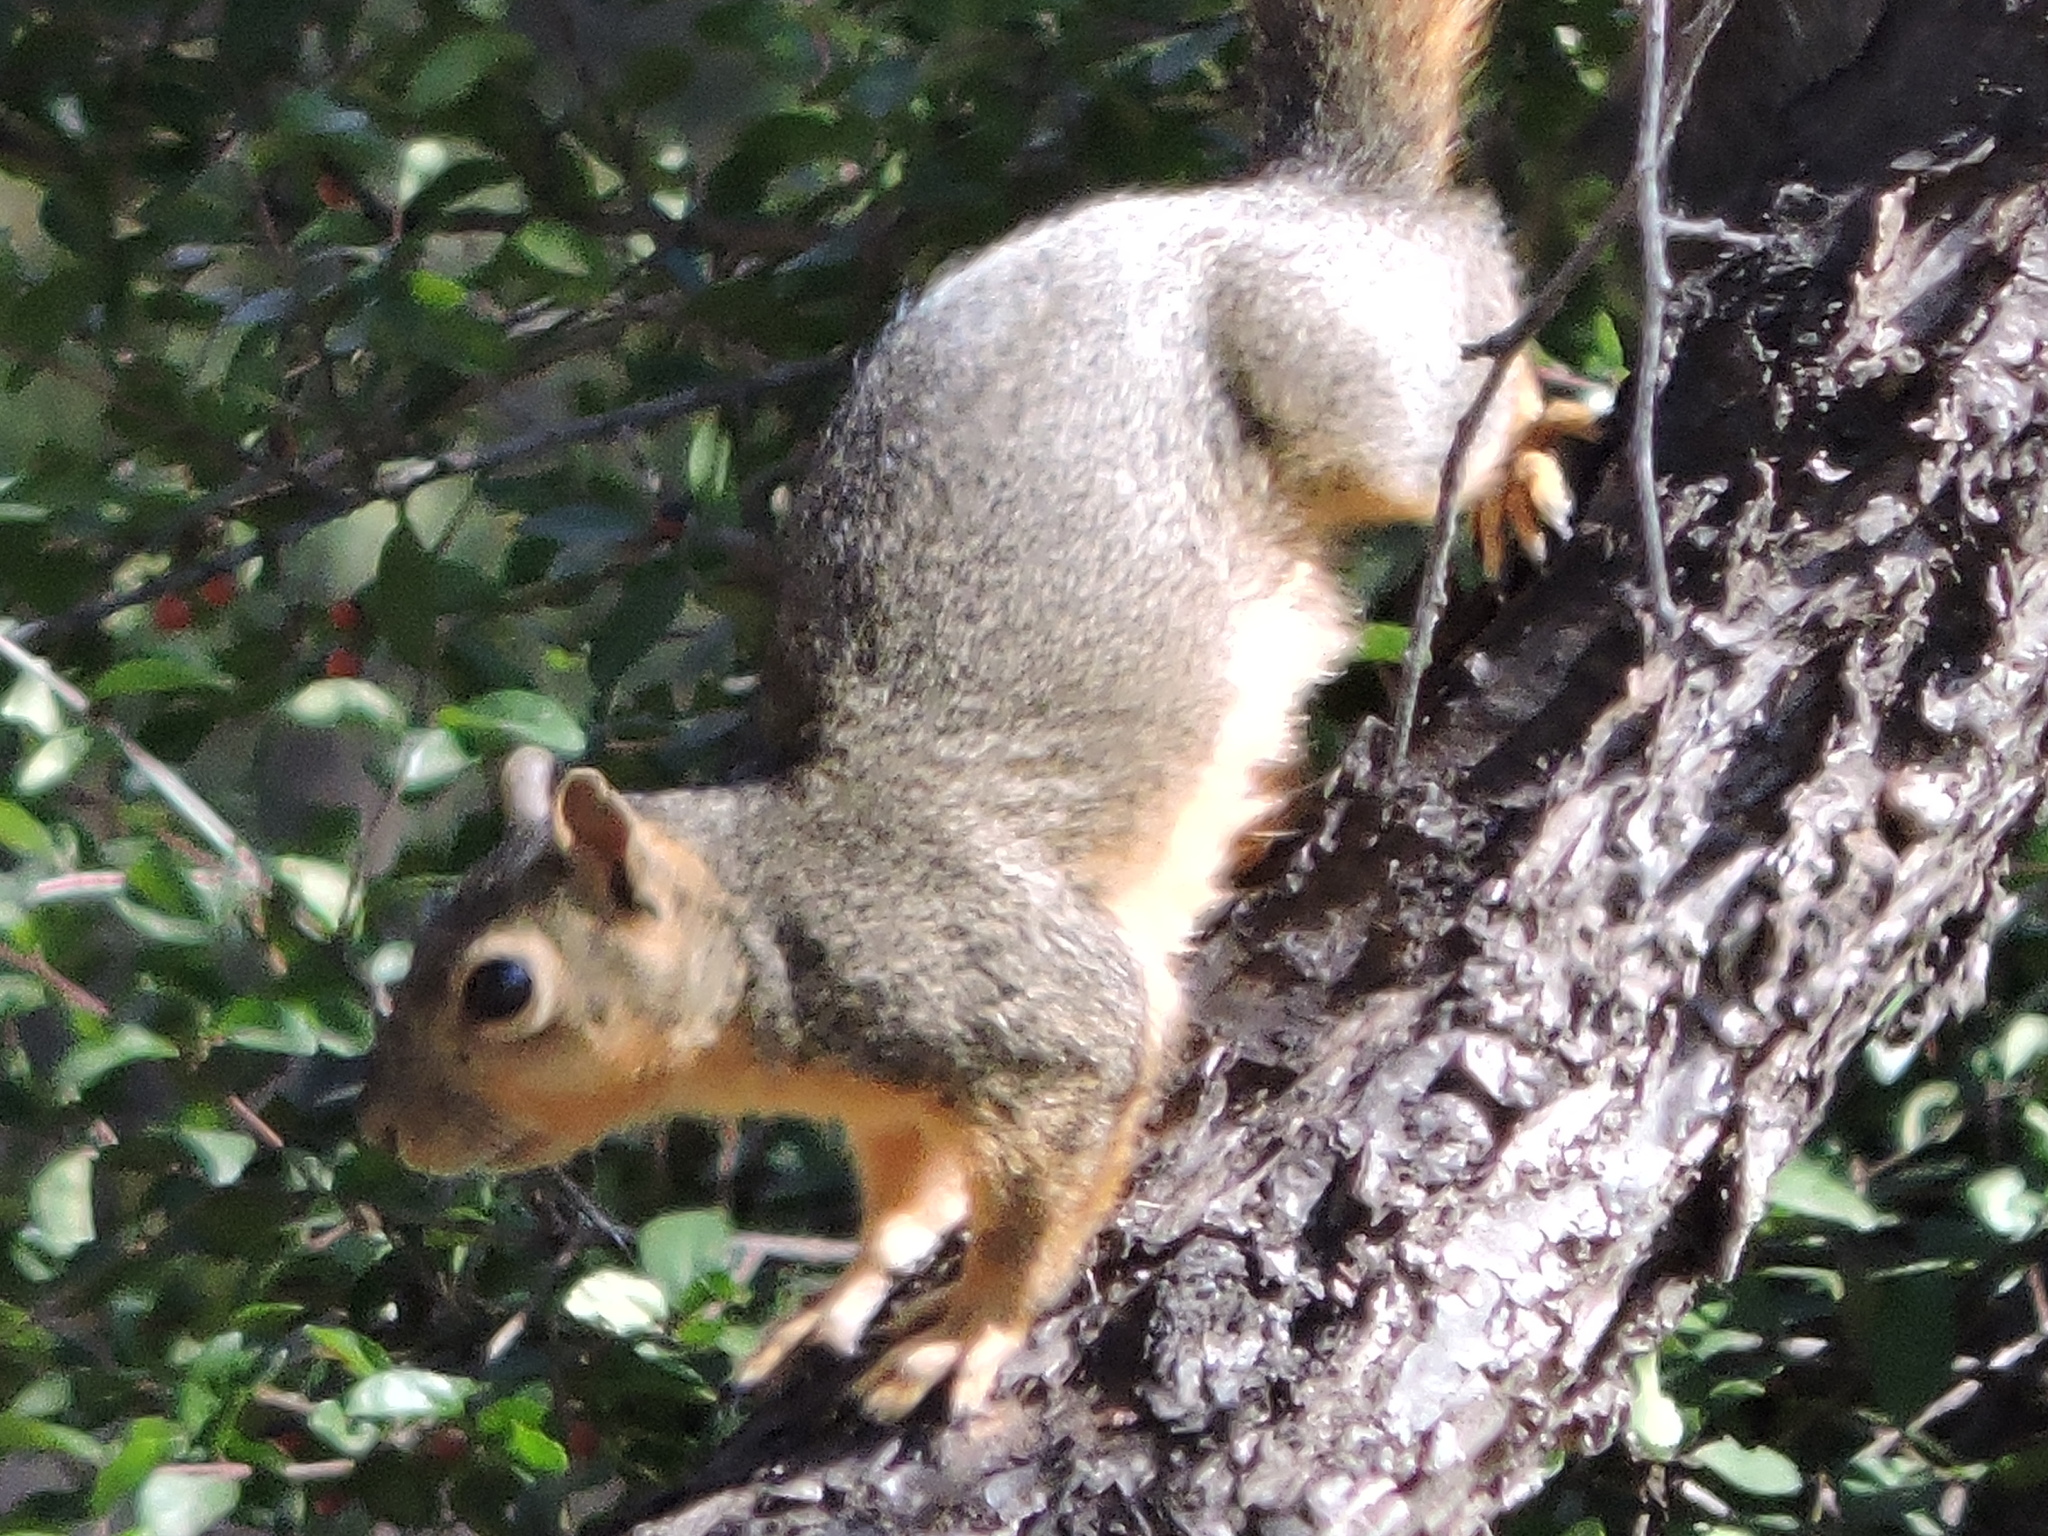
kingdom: Animalia
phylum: Chordata
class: Mammalia
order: Rodentia
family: Sciuridae
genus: Sciurus
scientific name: Sciurus niger
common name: Fox squirrel
